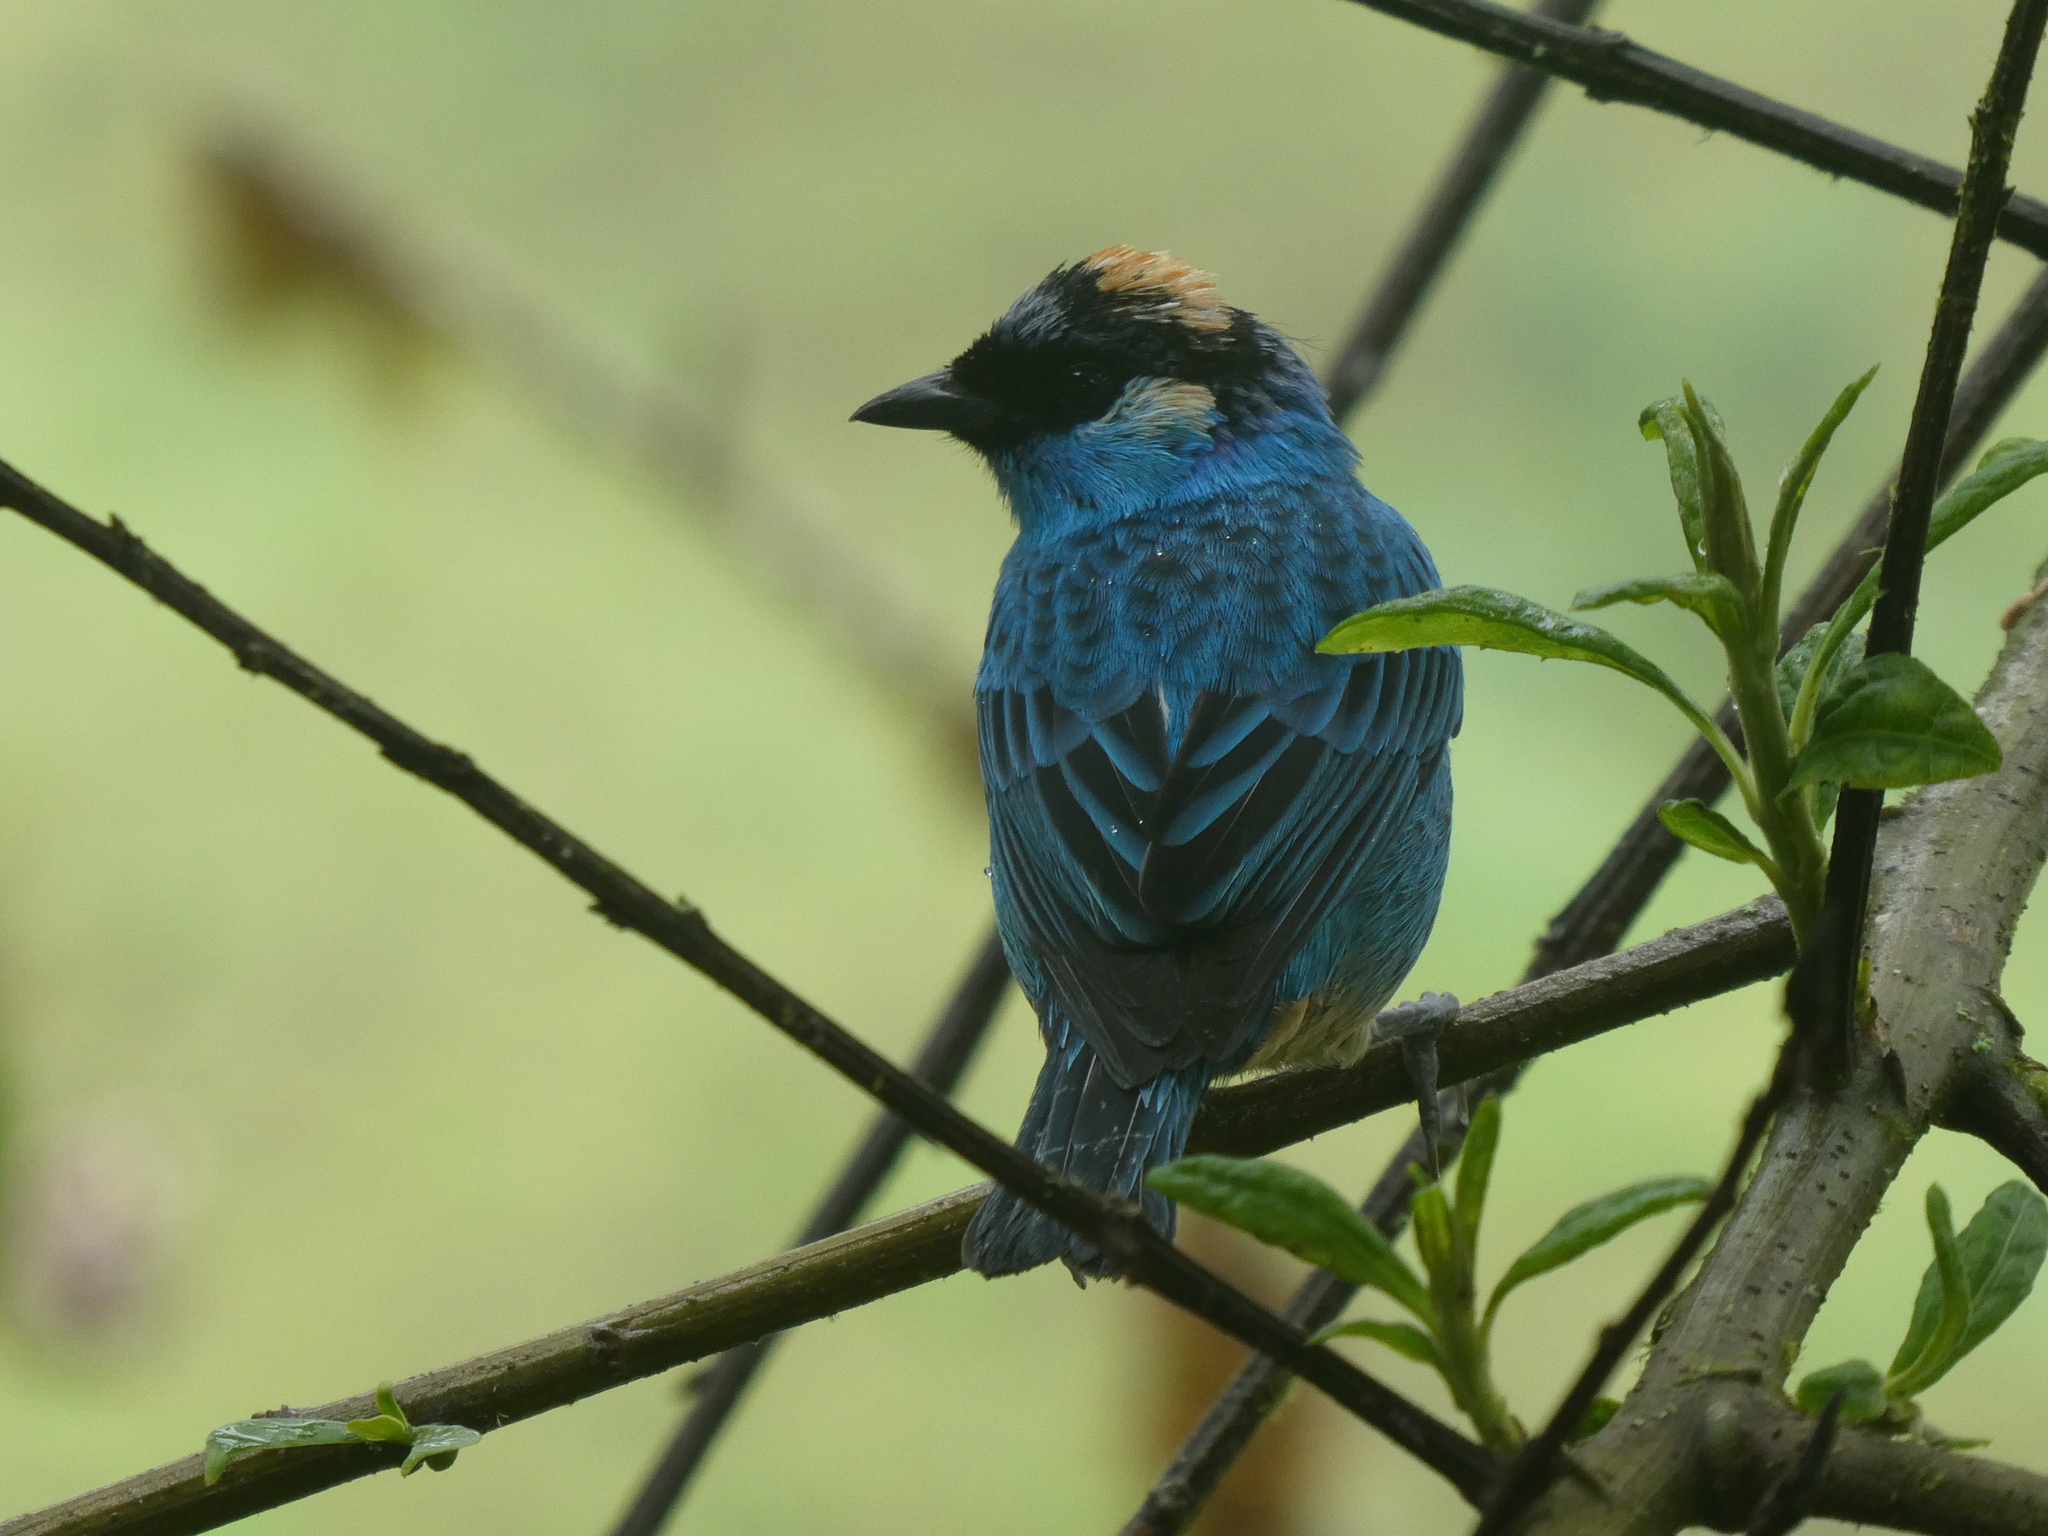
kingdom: Animalia
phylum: Chordata
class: Aves
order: Passeriformes
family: Thraupidae
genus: Chalcothraupis
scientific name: Chalcothraupis ruficervix
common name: Golden-naped tanager
